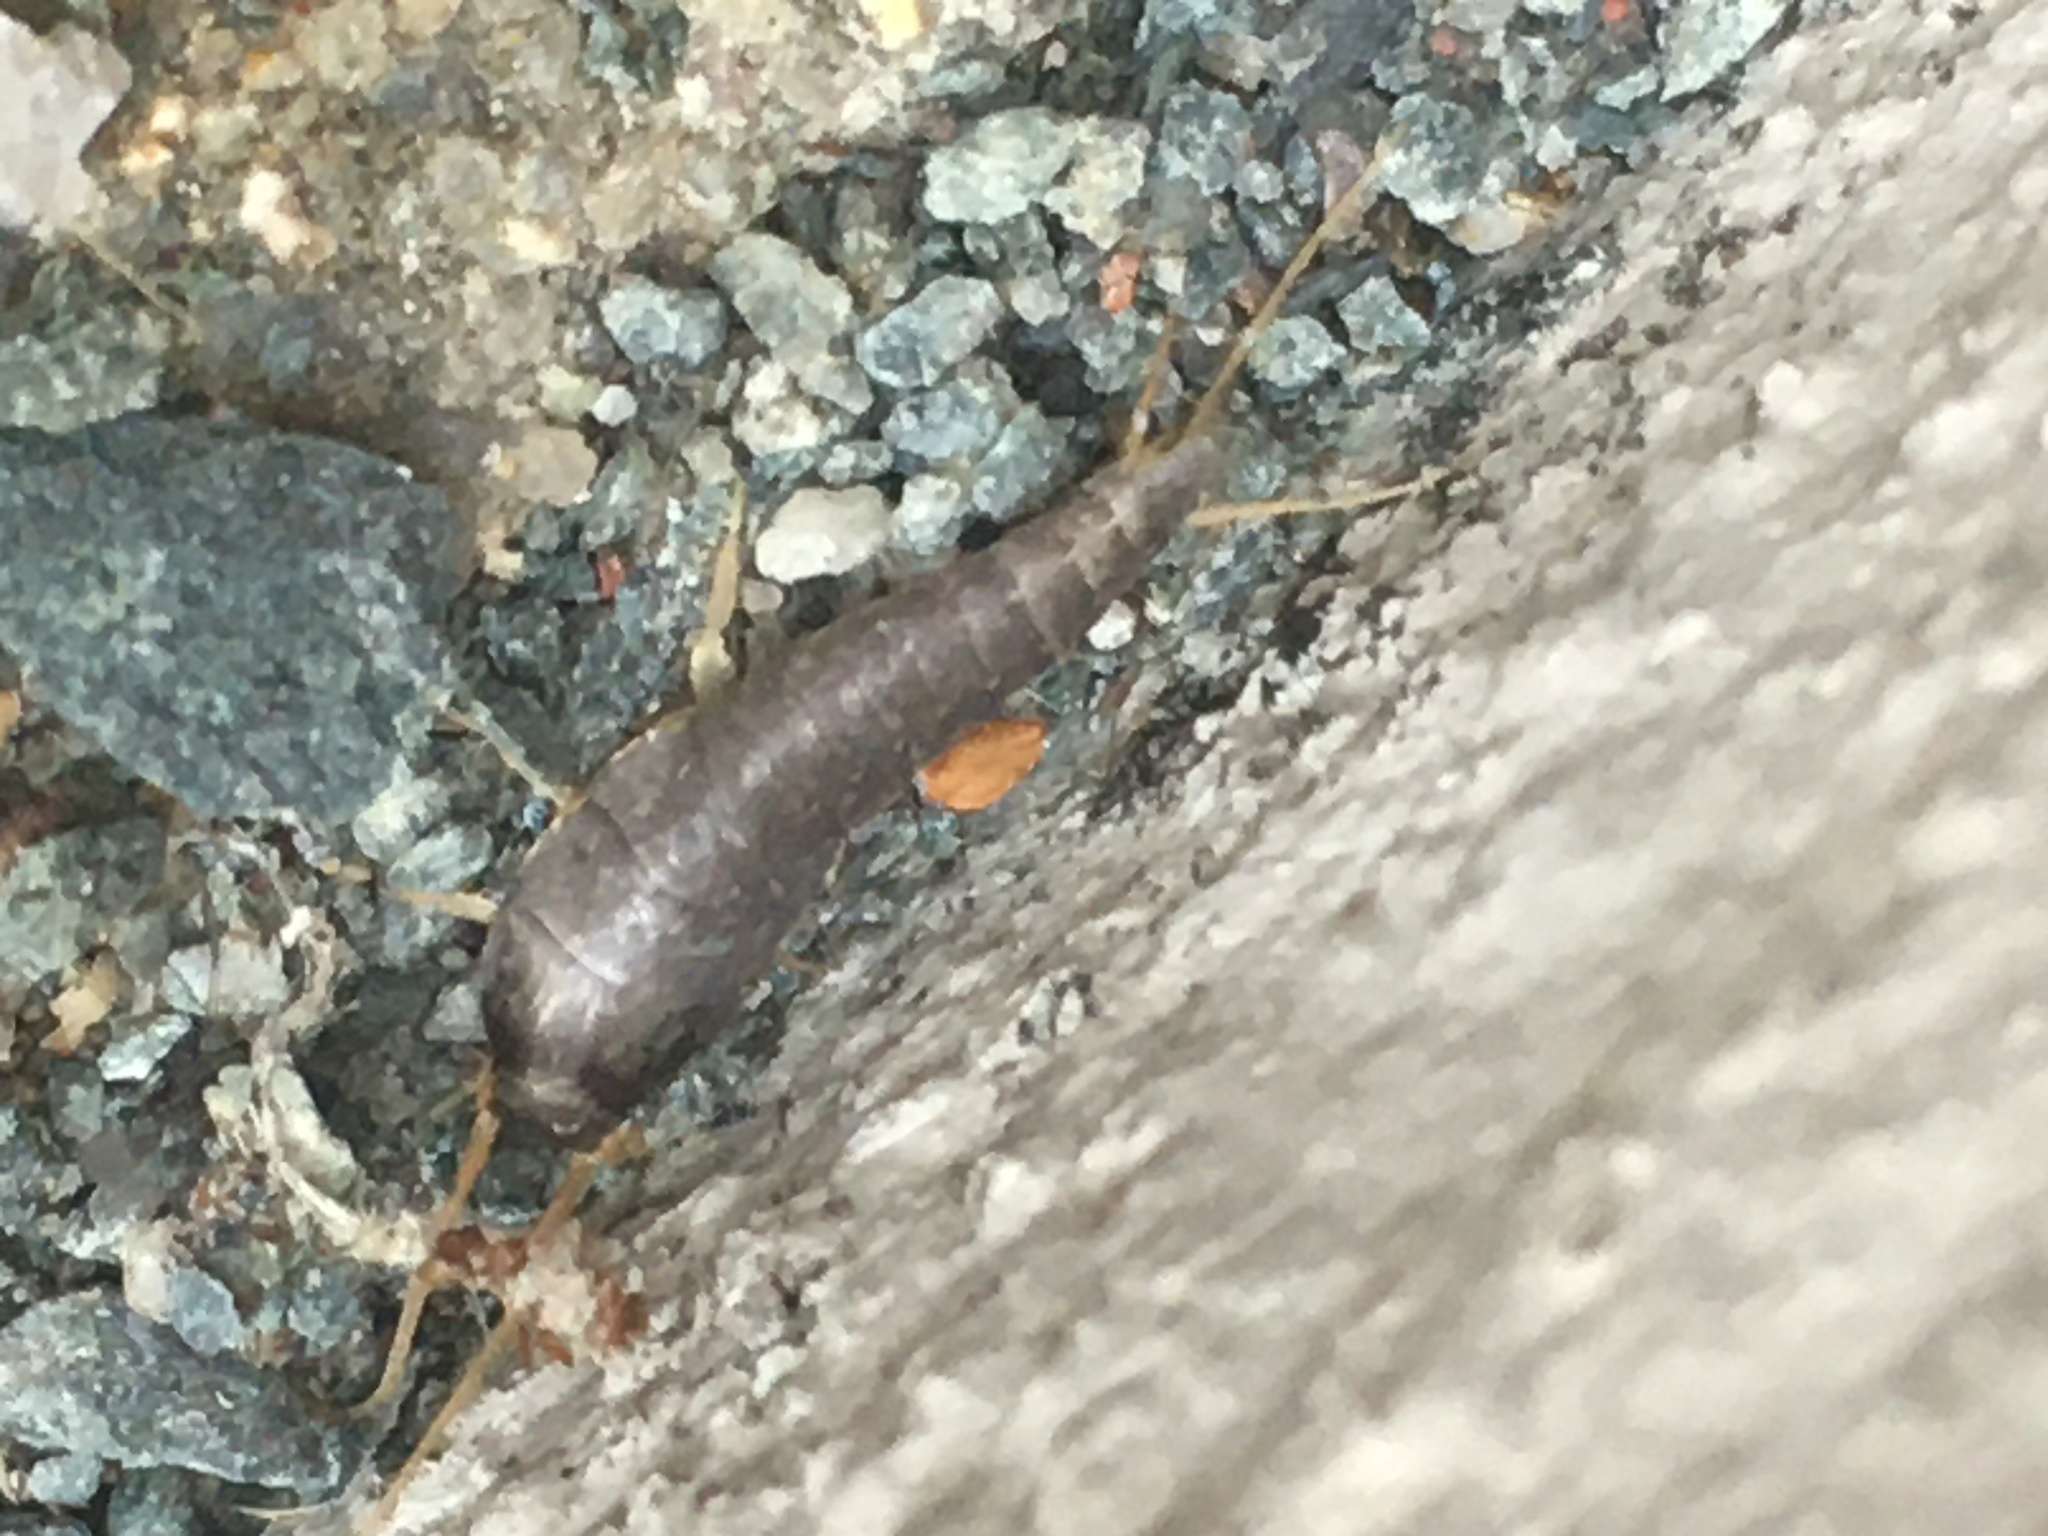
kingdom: Animalia
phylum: Arthropoda
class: Insecta
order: Zygentoma
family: Lepismatidae
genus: Lepisma
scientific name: Lepisma saccharinum
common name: Silverfish
